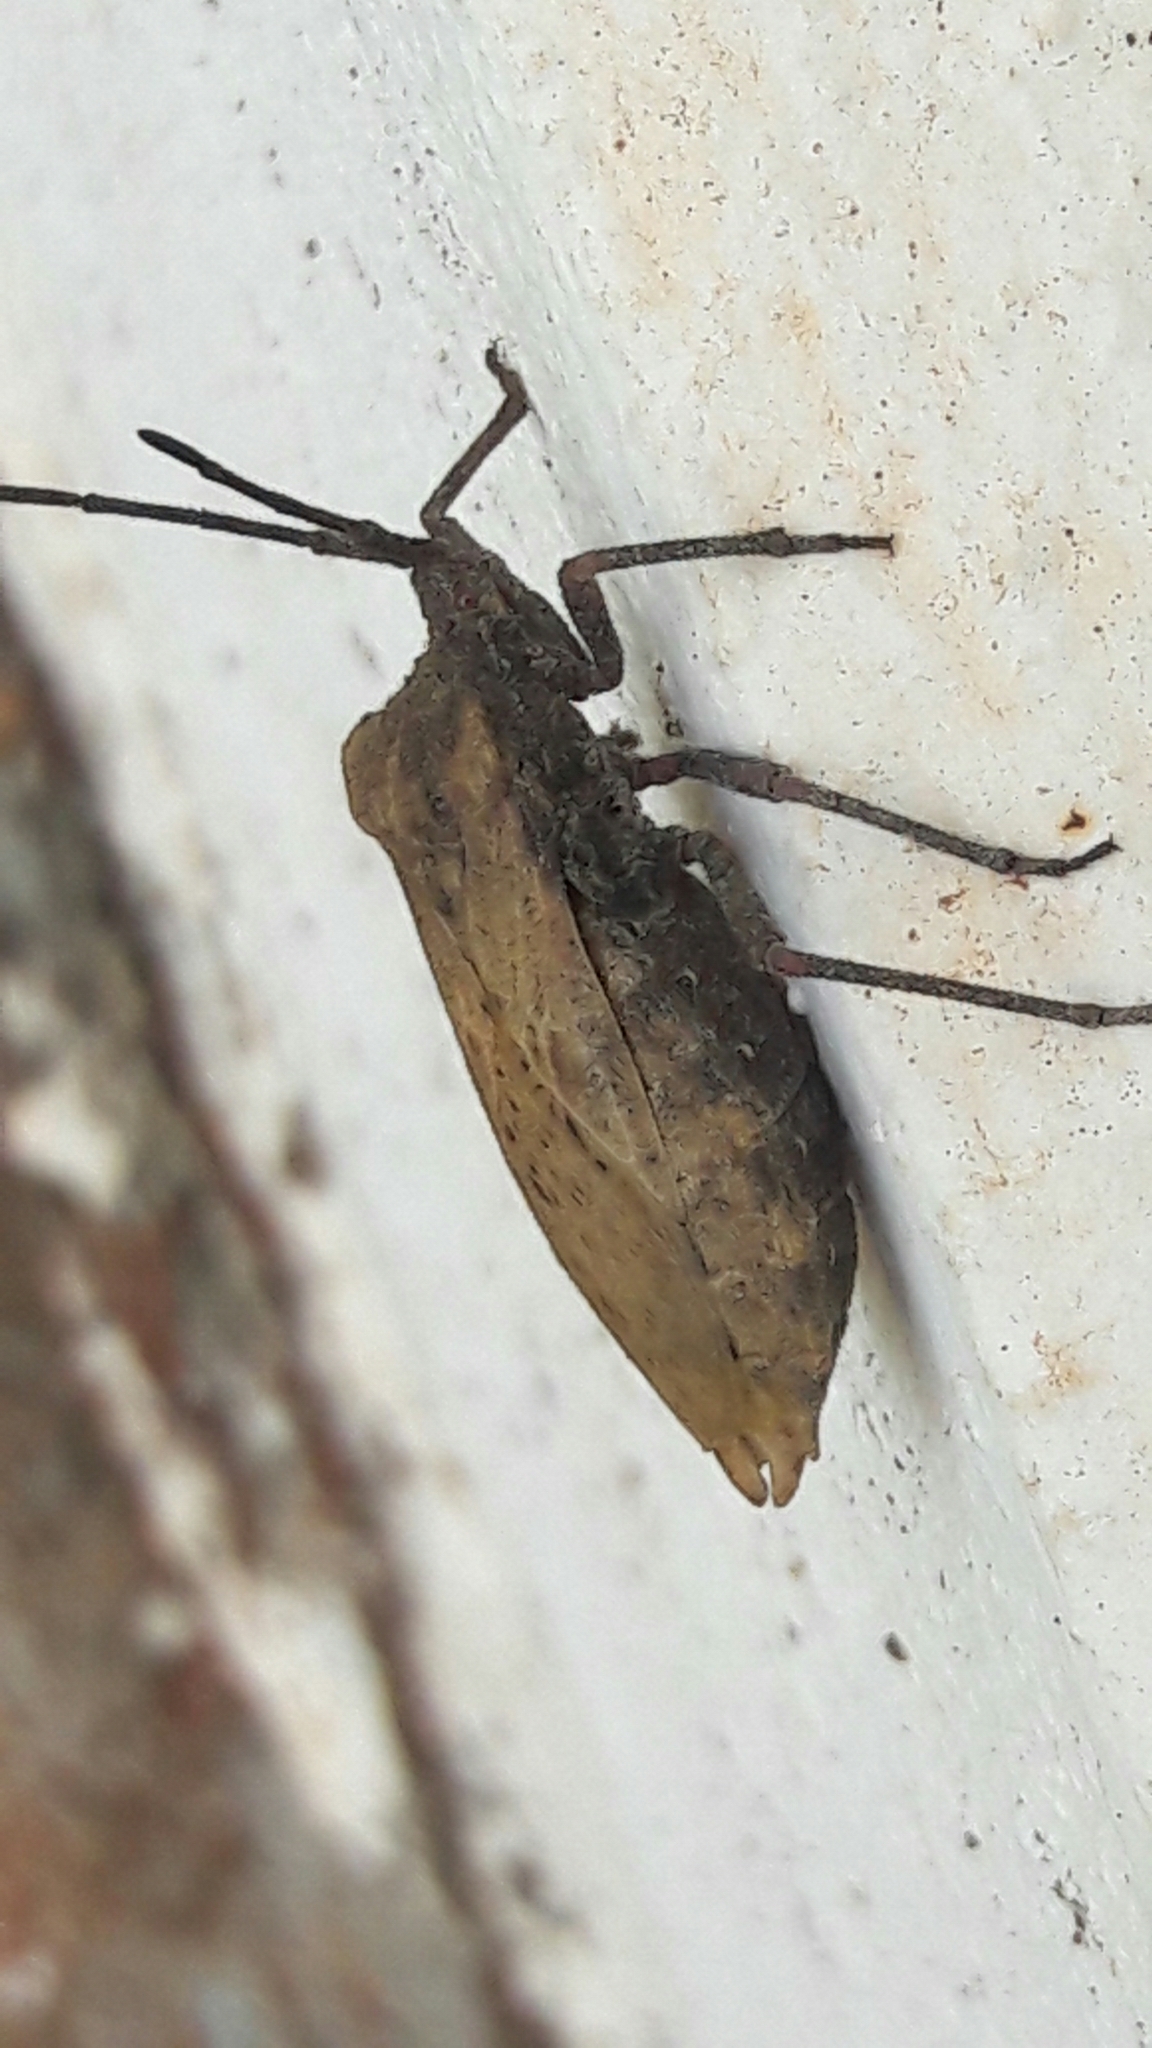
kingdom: Animalia
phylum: Arthropoda
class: Insecta
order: Hemiptera
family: Coreidae
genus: Spartocera
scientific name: Spartocera fusca
